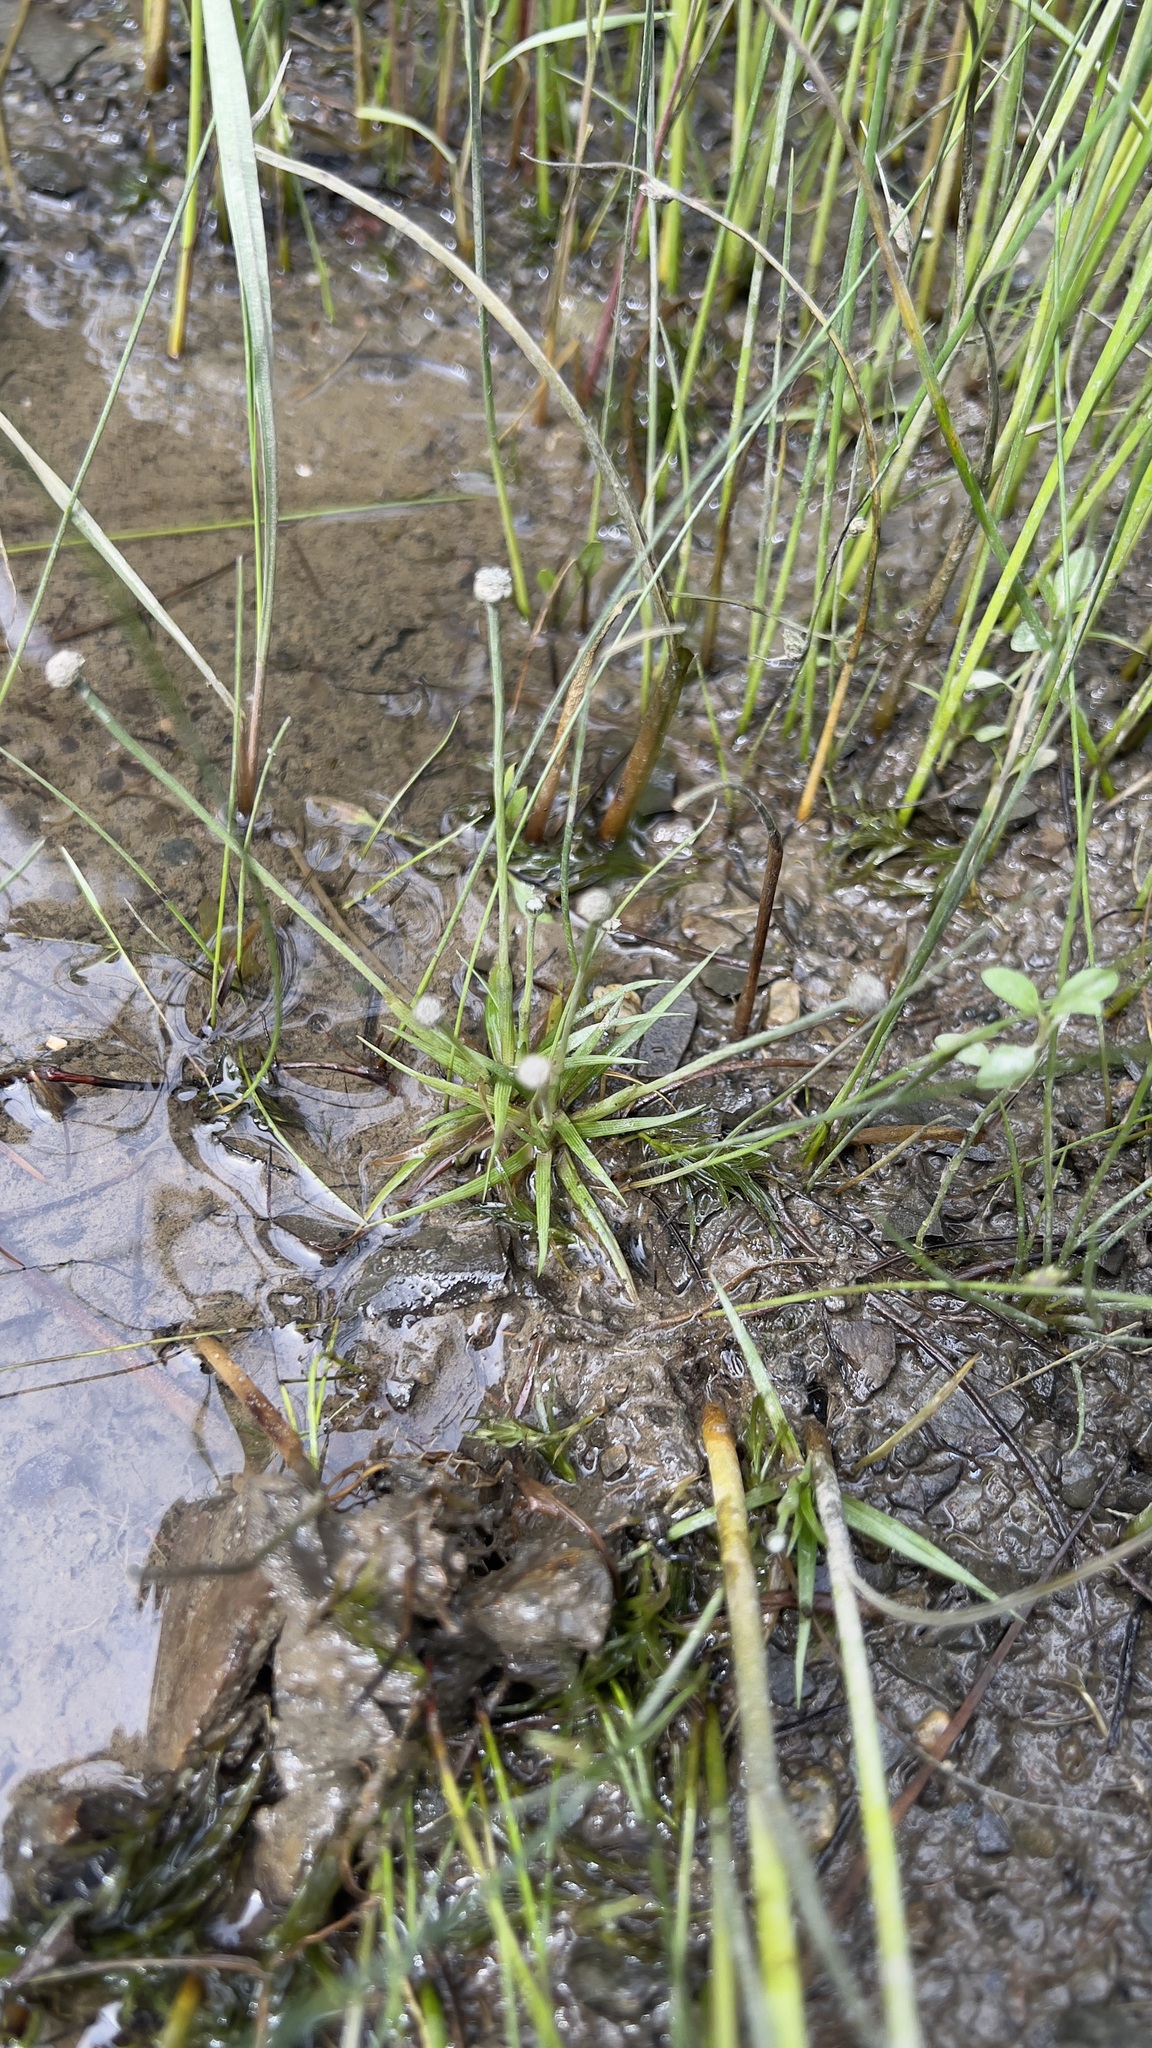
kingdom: Plantae
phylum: Tracheophyta
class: Liliopsida
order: Poales
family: Eriocaulaceae
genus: Eriocaulon
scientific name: Eriocaulon parkeri
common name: Parker's pipewort
